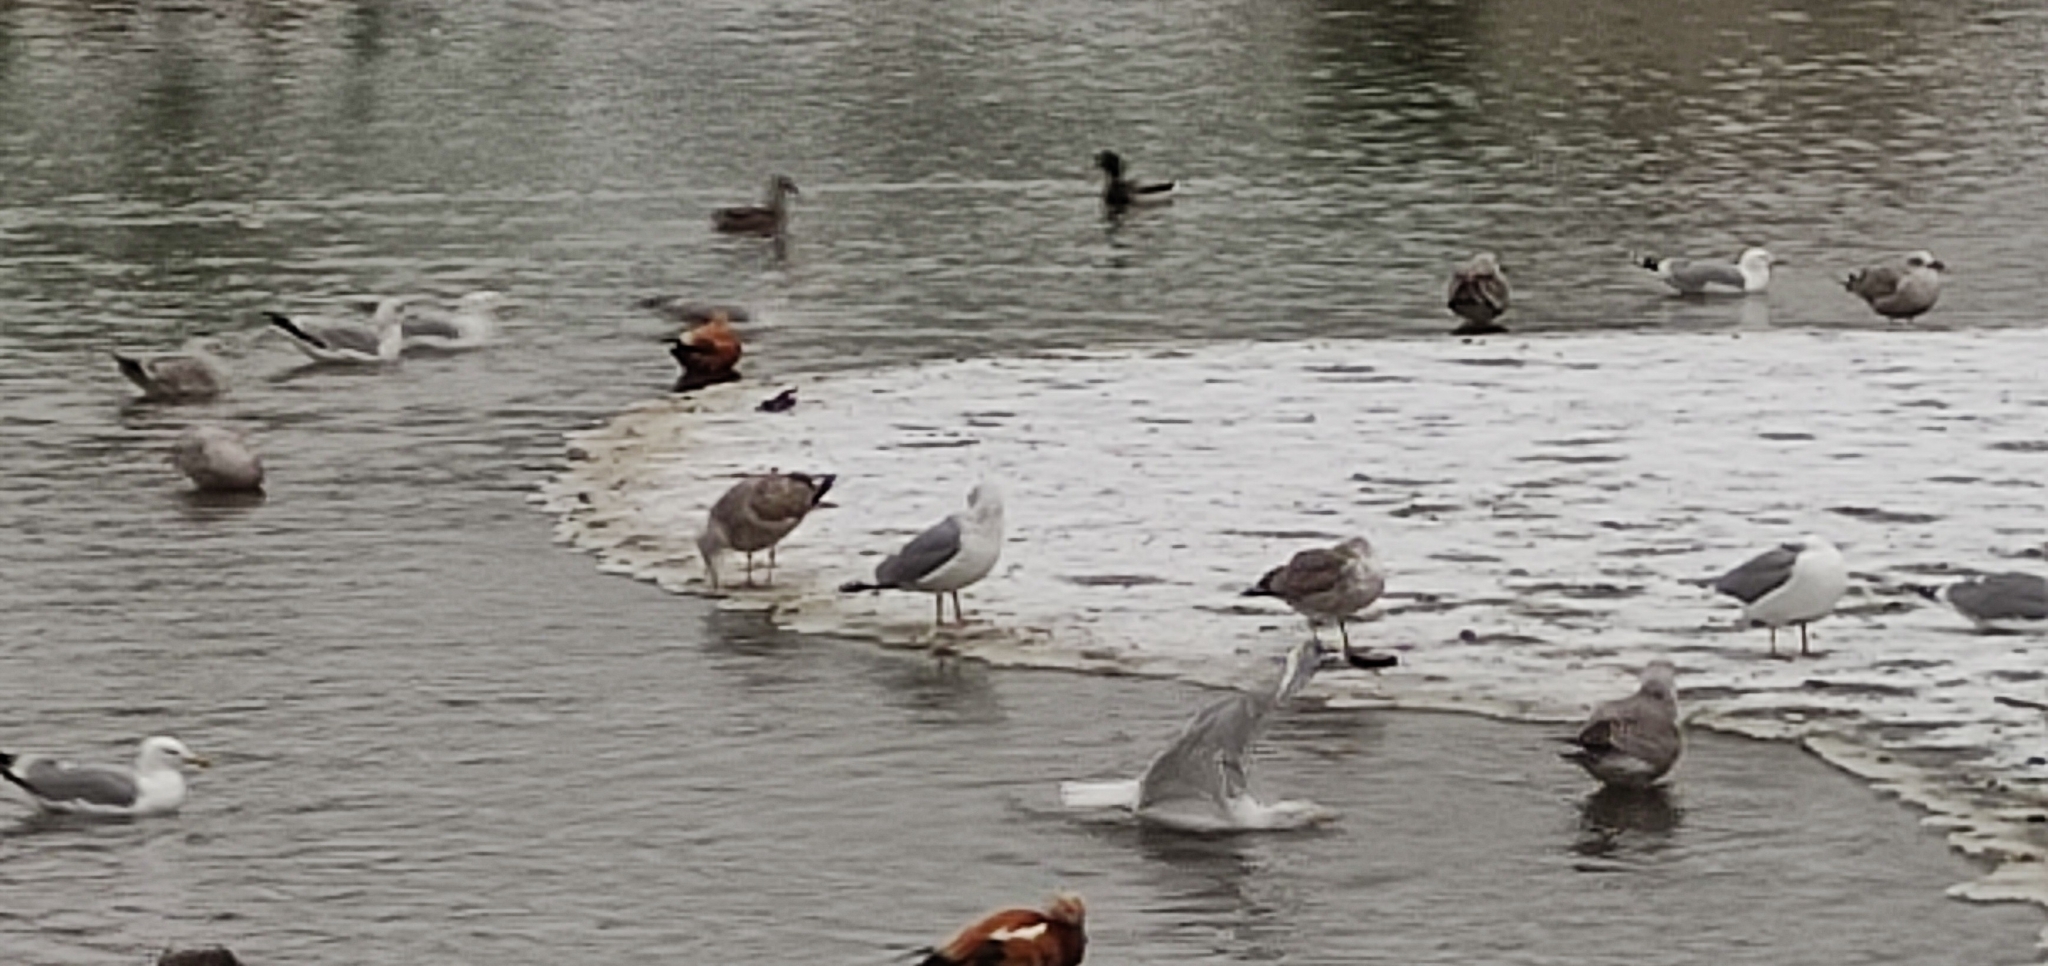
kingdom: Animalia
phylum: Chordata
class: Aves
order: Charadriiformes
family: Laridae
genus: Larus
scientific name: Larus argentatus
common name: Herring gull
